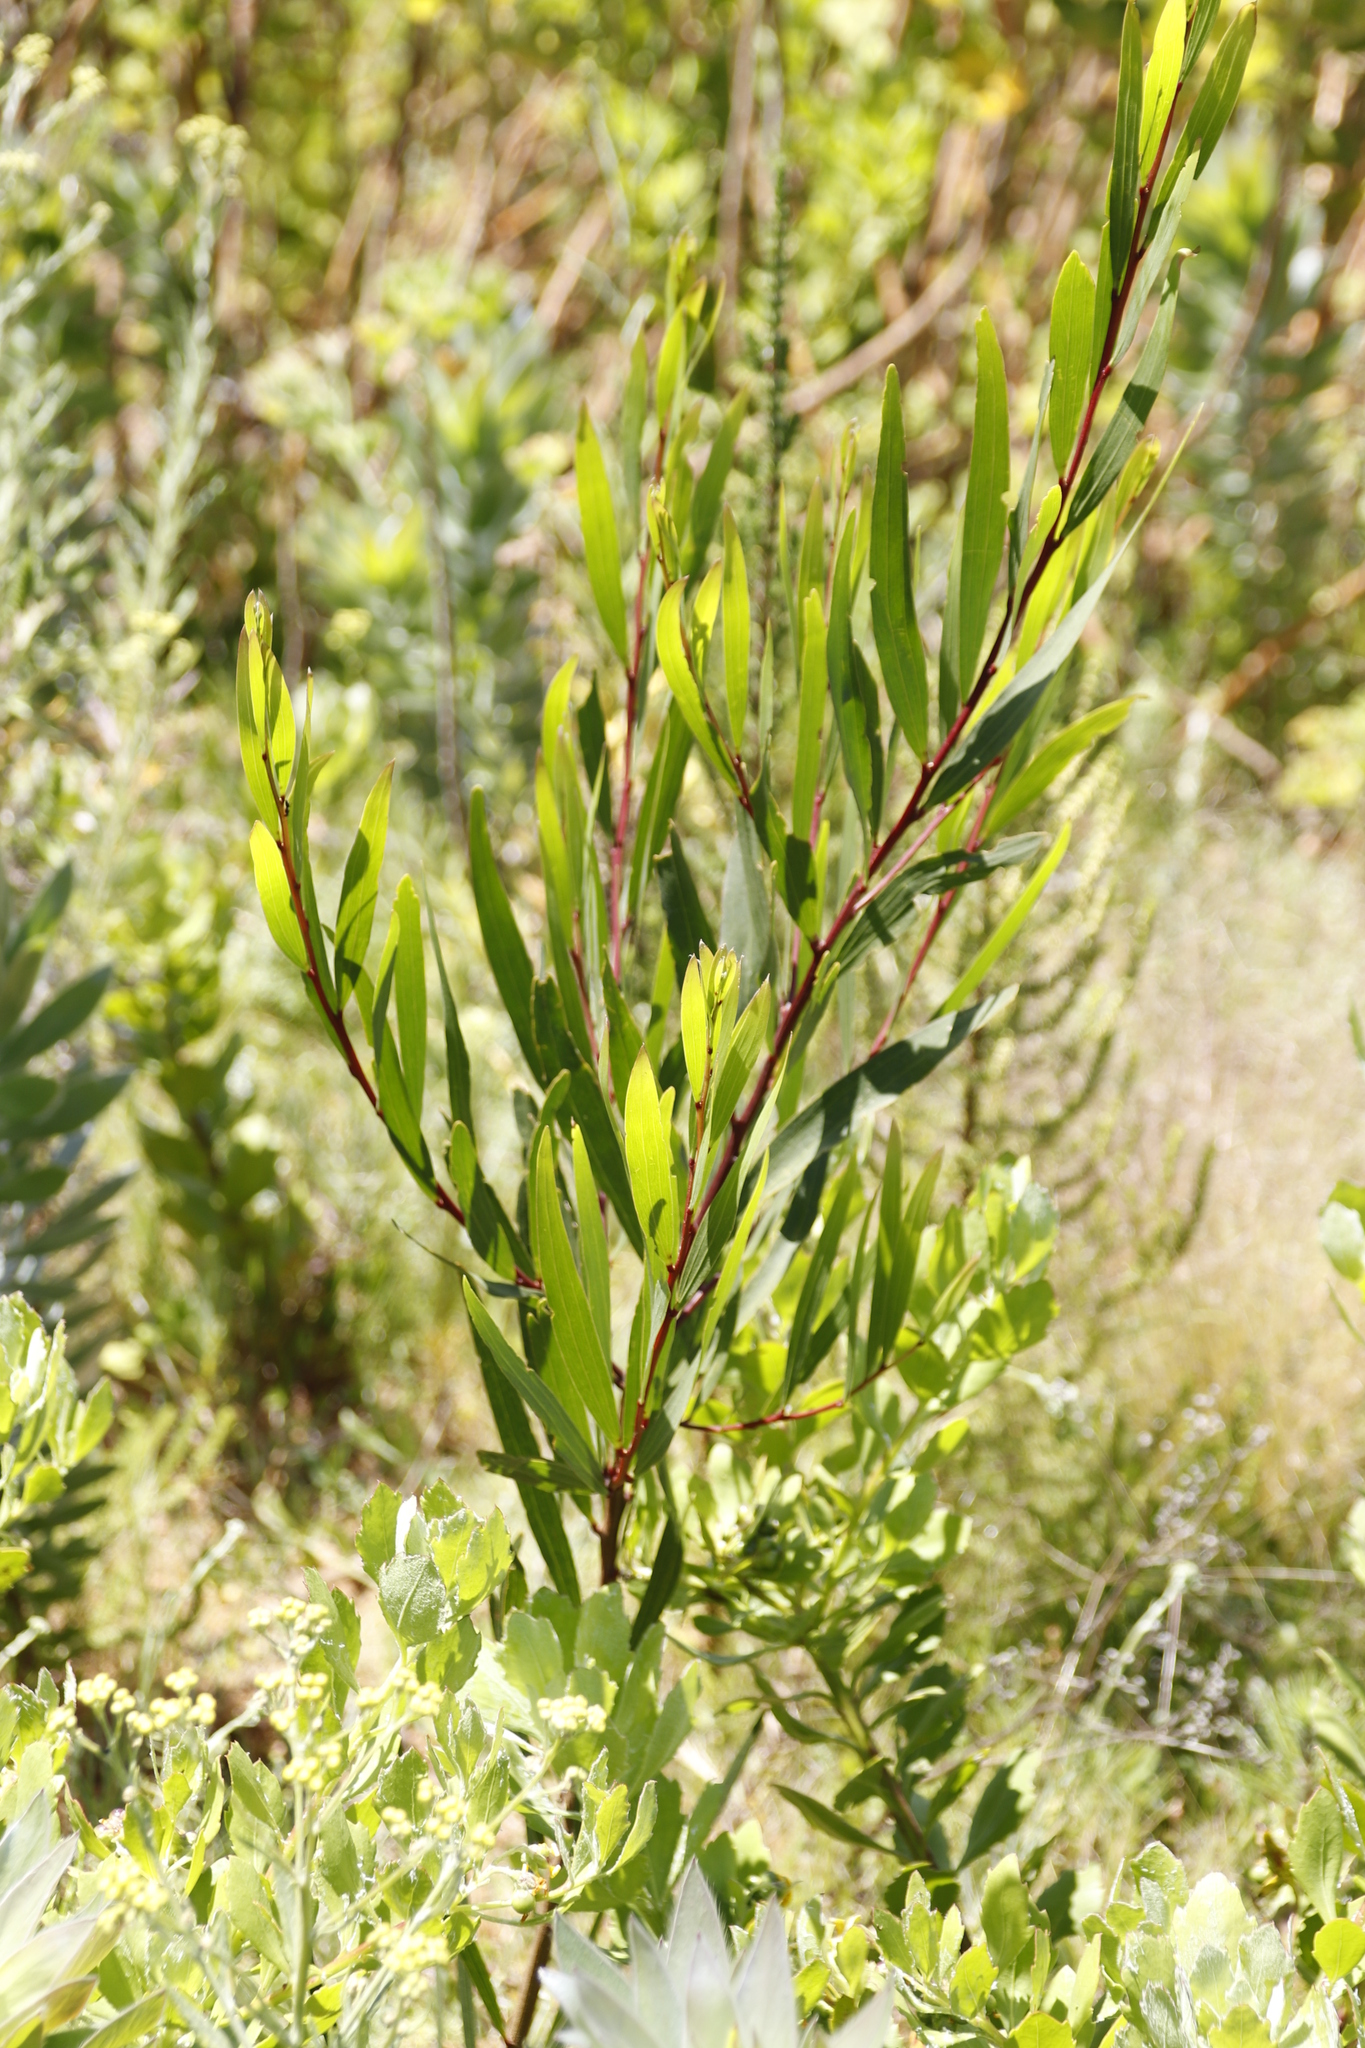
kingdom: Plantae
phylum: Tracheophyta
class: Magnoliopsida
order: Fabales
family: Fabaceae
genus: Acacia
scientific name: Acacia longifolia
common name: Sydney golden wattle
